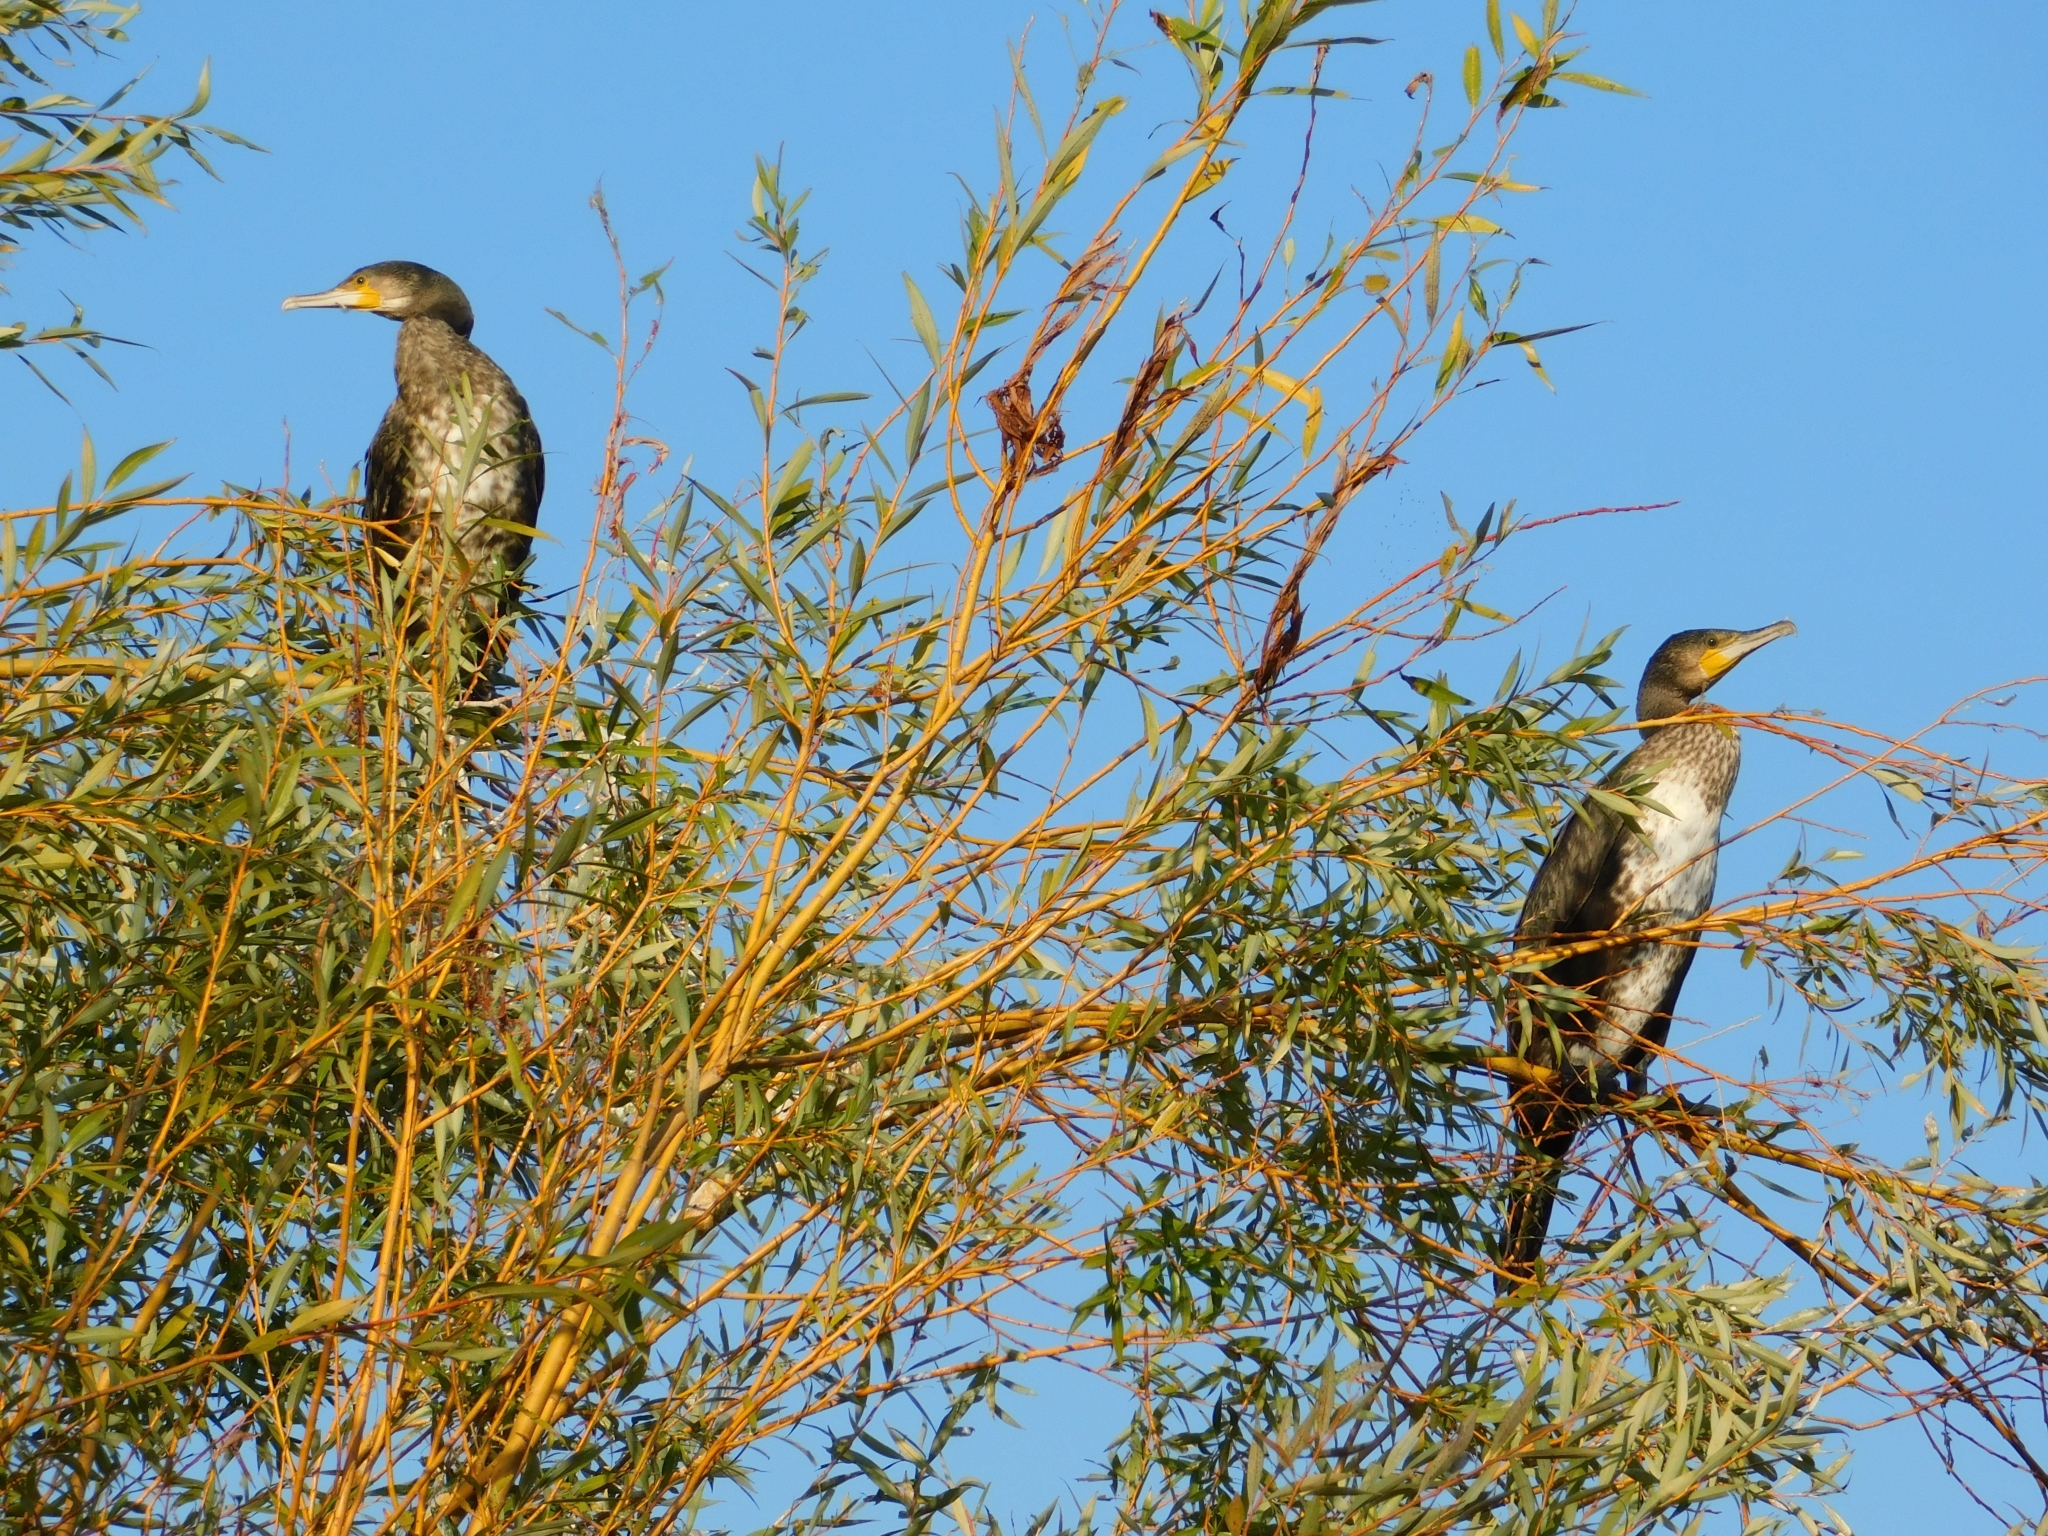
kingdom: Animalia
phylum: Chordata
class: Aves
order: Suliformes
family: Phalacrocoracidae
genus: Phalacrocorax
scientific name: Phalacrocorax carbo
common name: Great cormorant
